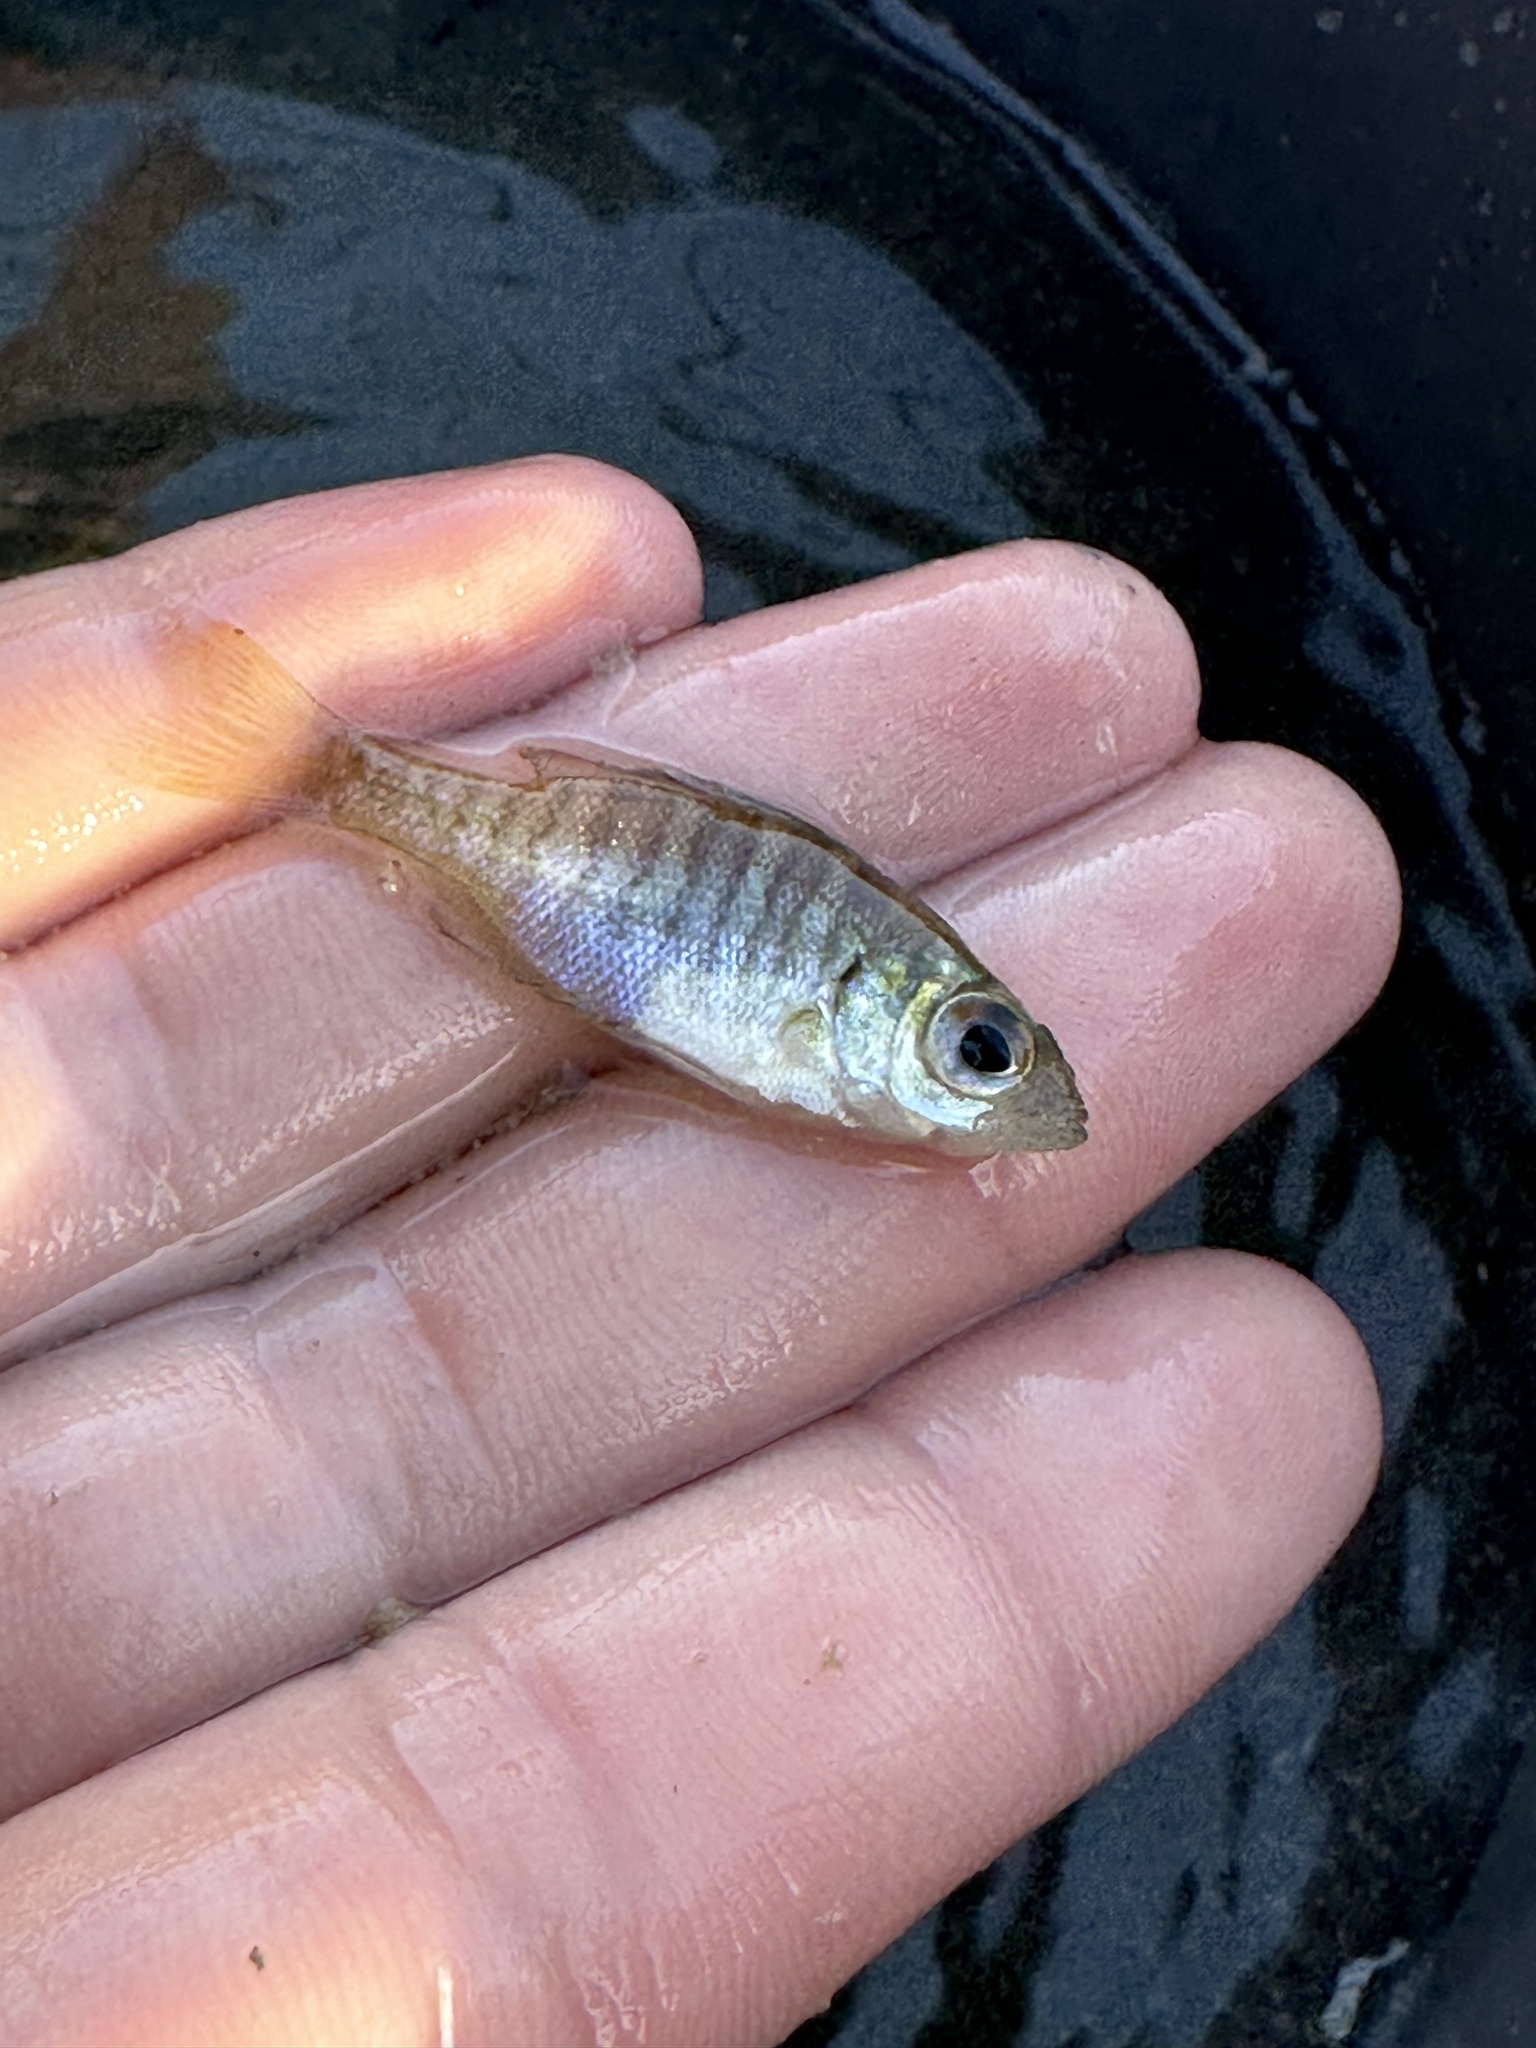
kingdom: Animalia
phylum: Chordata
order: Perciformes
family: Centrarchidae
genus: Lepomis
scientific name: Lepomis macrochirus
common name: Bluegill
